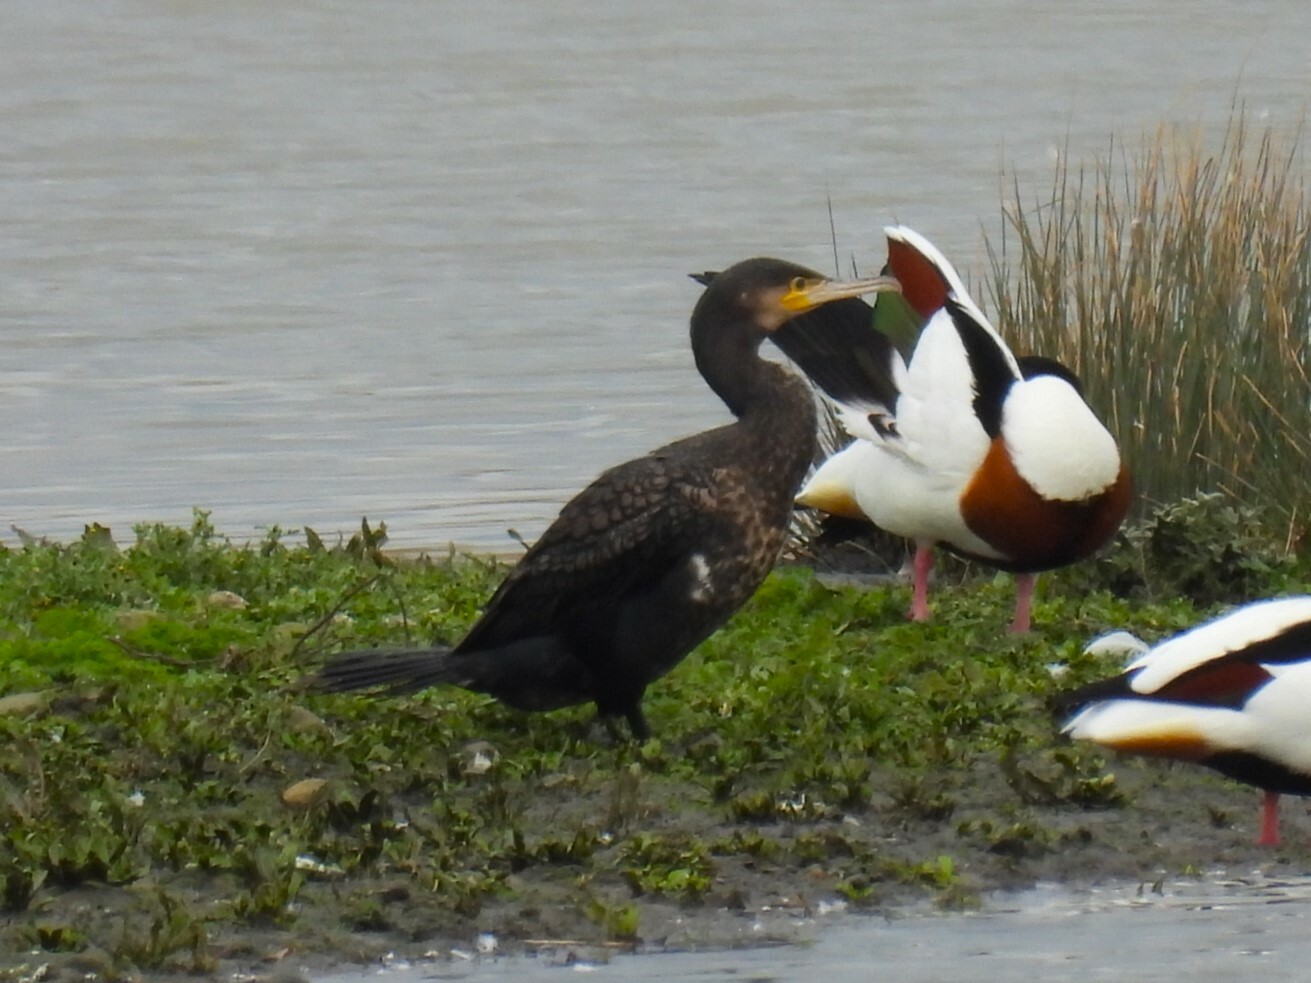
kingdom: Animalia
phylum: Chordata
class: Aves
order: Suliformes
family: Phalacrocoracidae
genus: Phalacrocorax
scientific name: Phalacrocorax carbo
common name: Great cormorant
